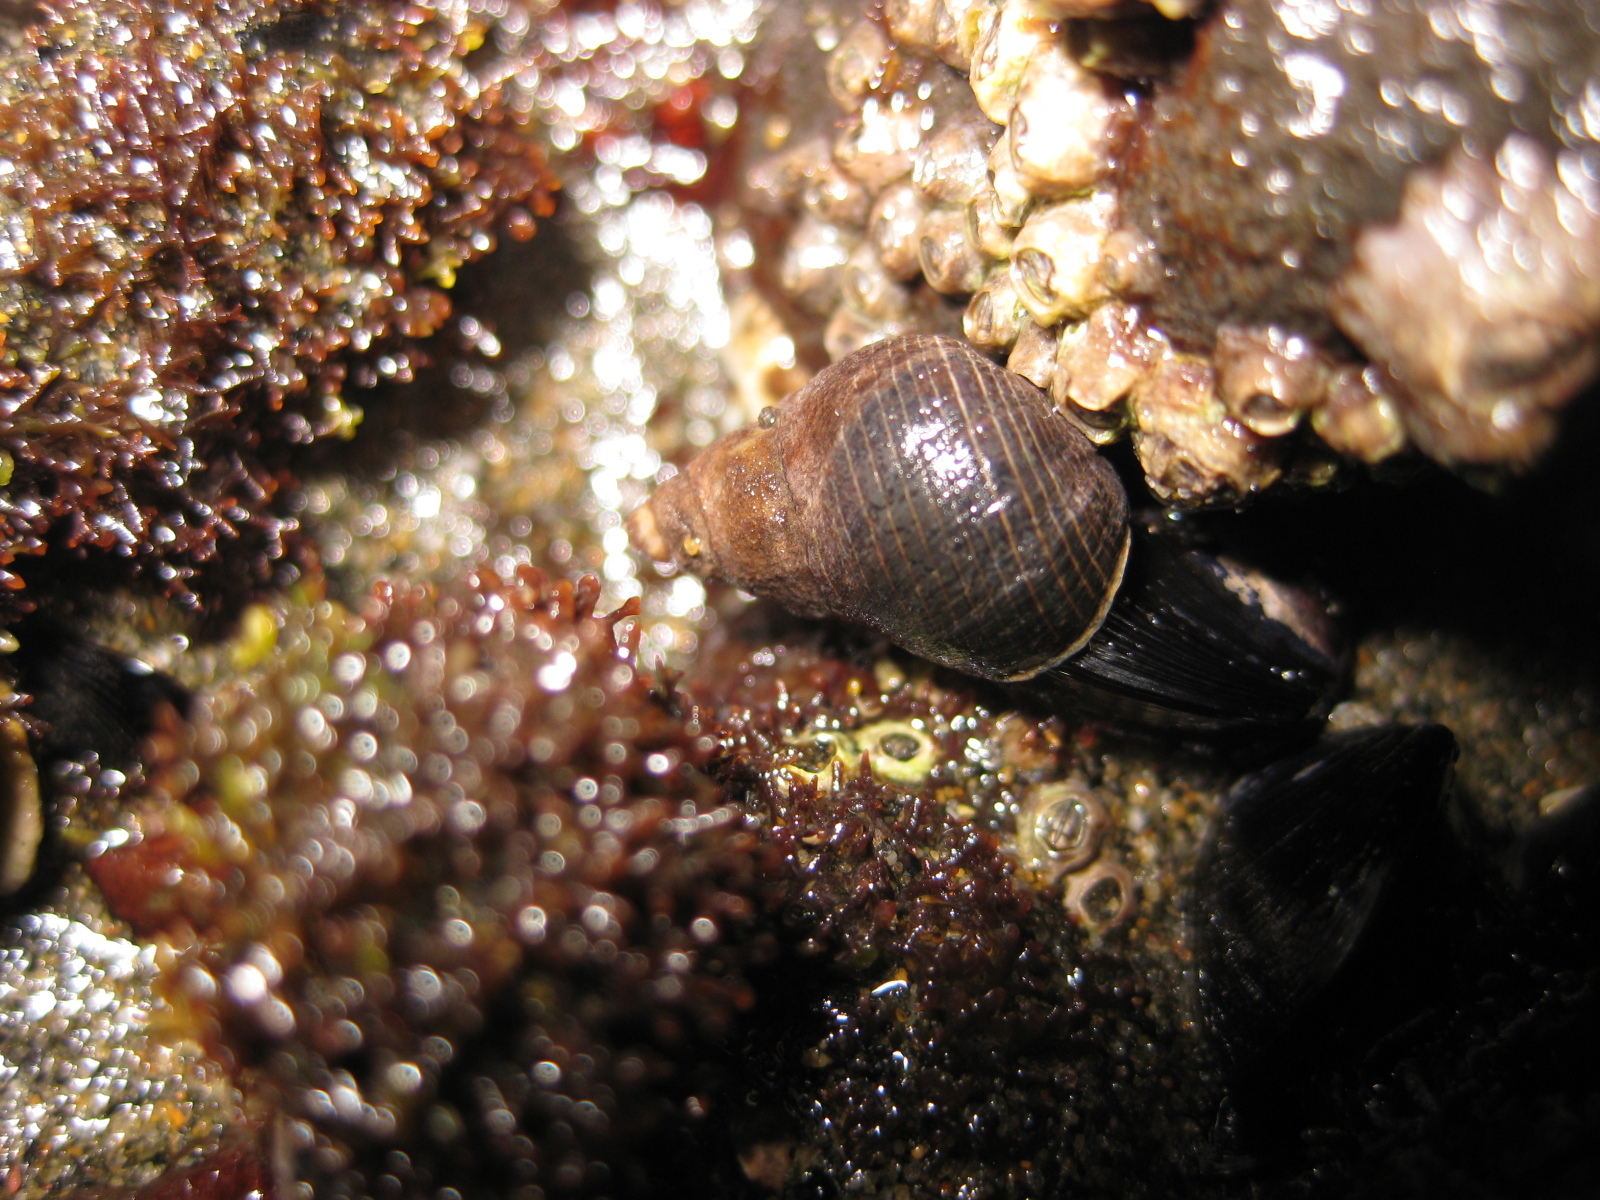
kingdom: Animalia
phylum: Mollusca
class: Gastropoda
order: Littorinimorpha
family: Littorinidae
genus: Austrolittorina
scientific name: Austrolittorina cincta
